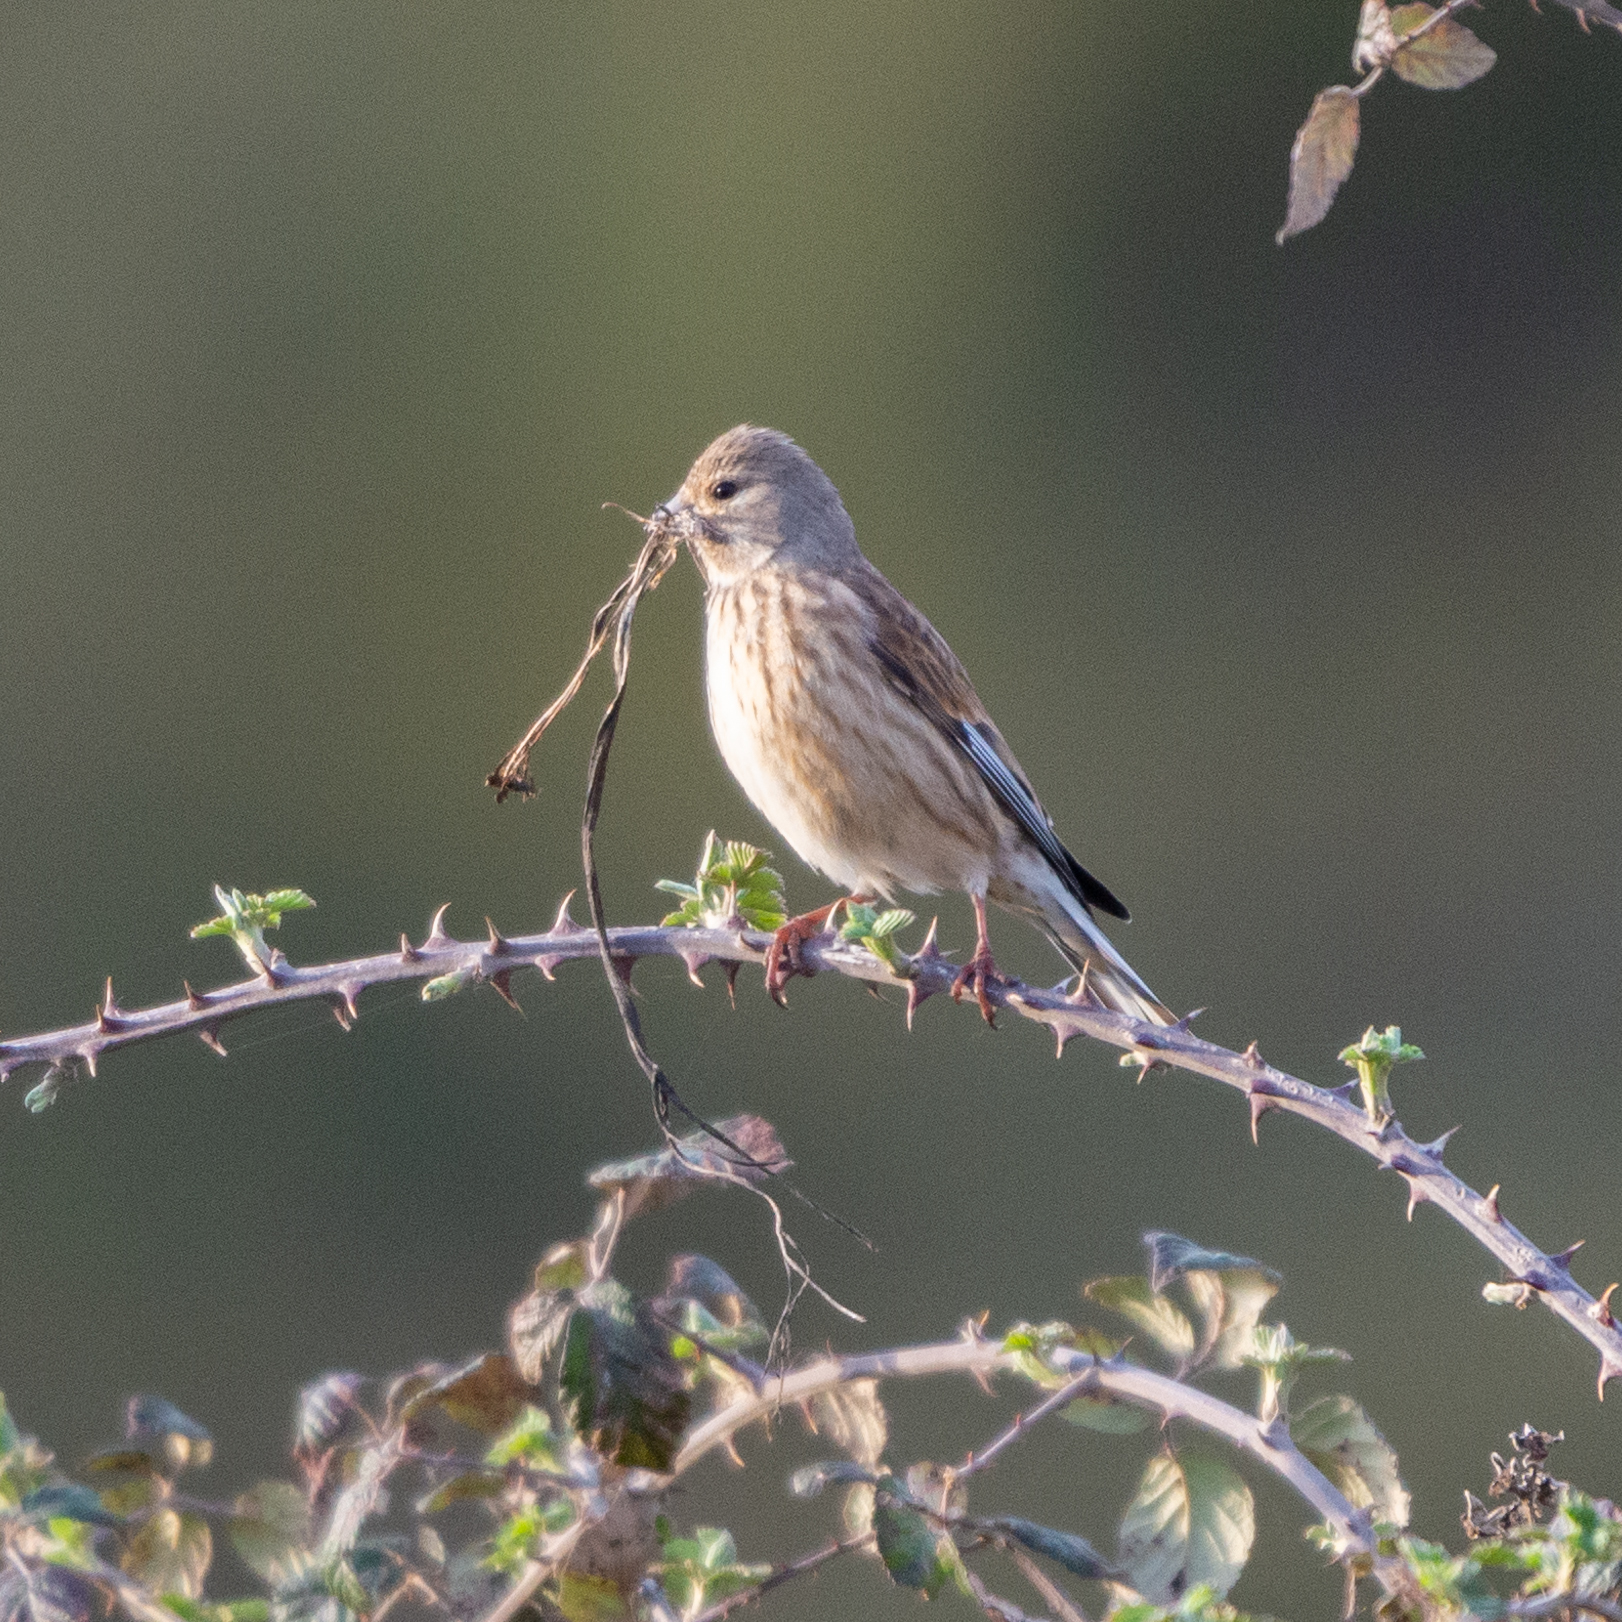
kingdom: Animalia
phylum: Chordata
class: Aves
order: Passeriformes
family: Fringillidae
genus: Linaria
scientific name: Linaria cannabina
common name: Common linnet
